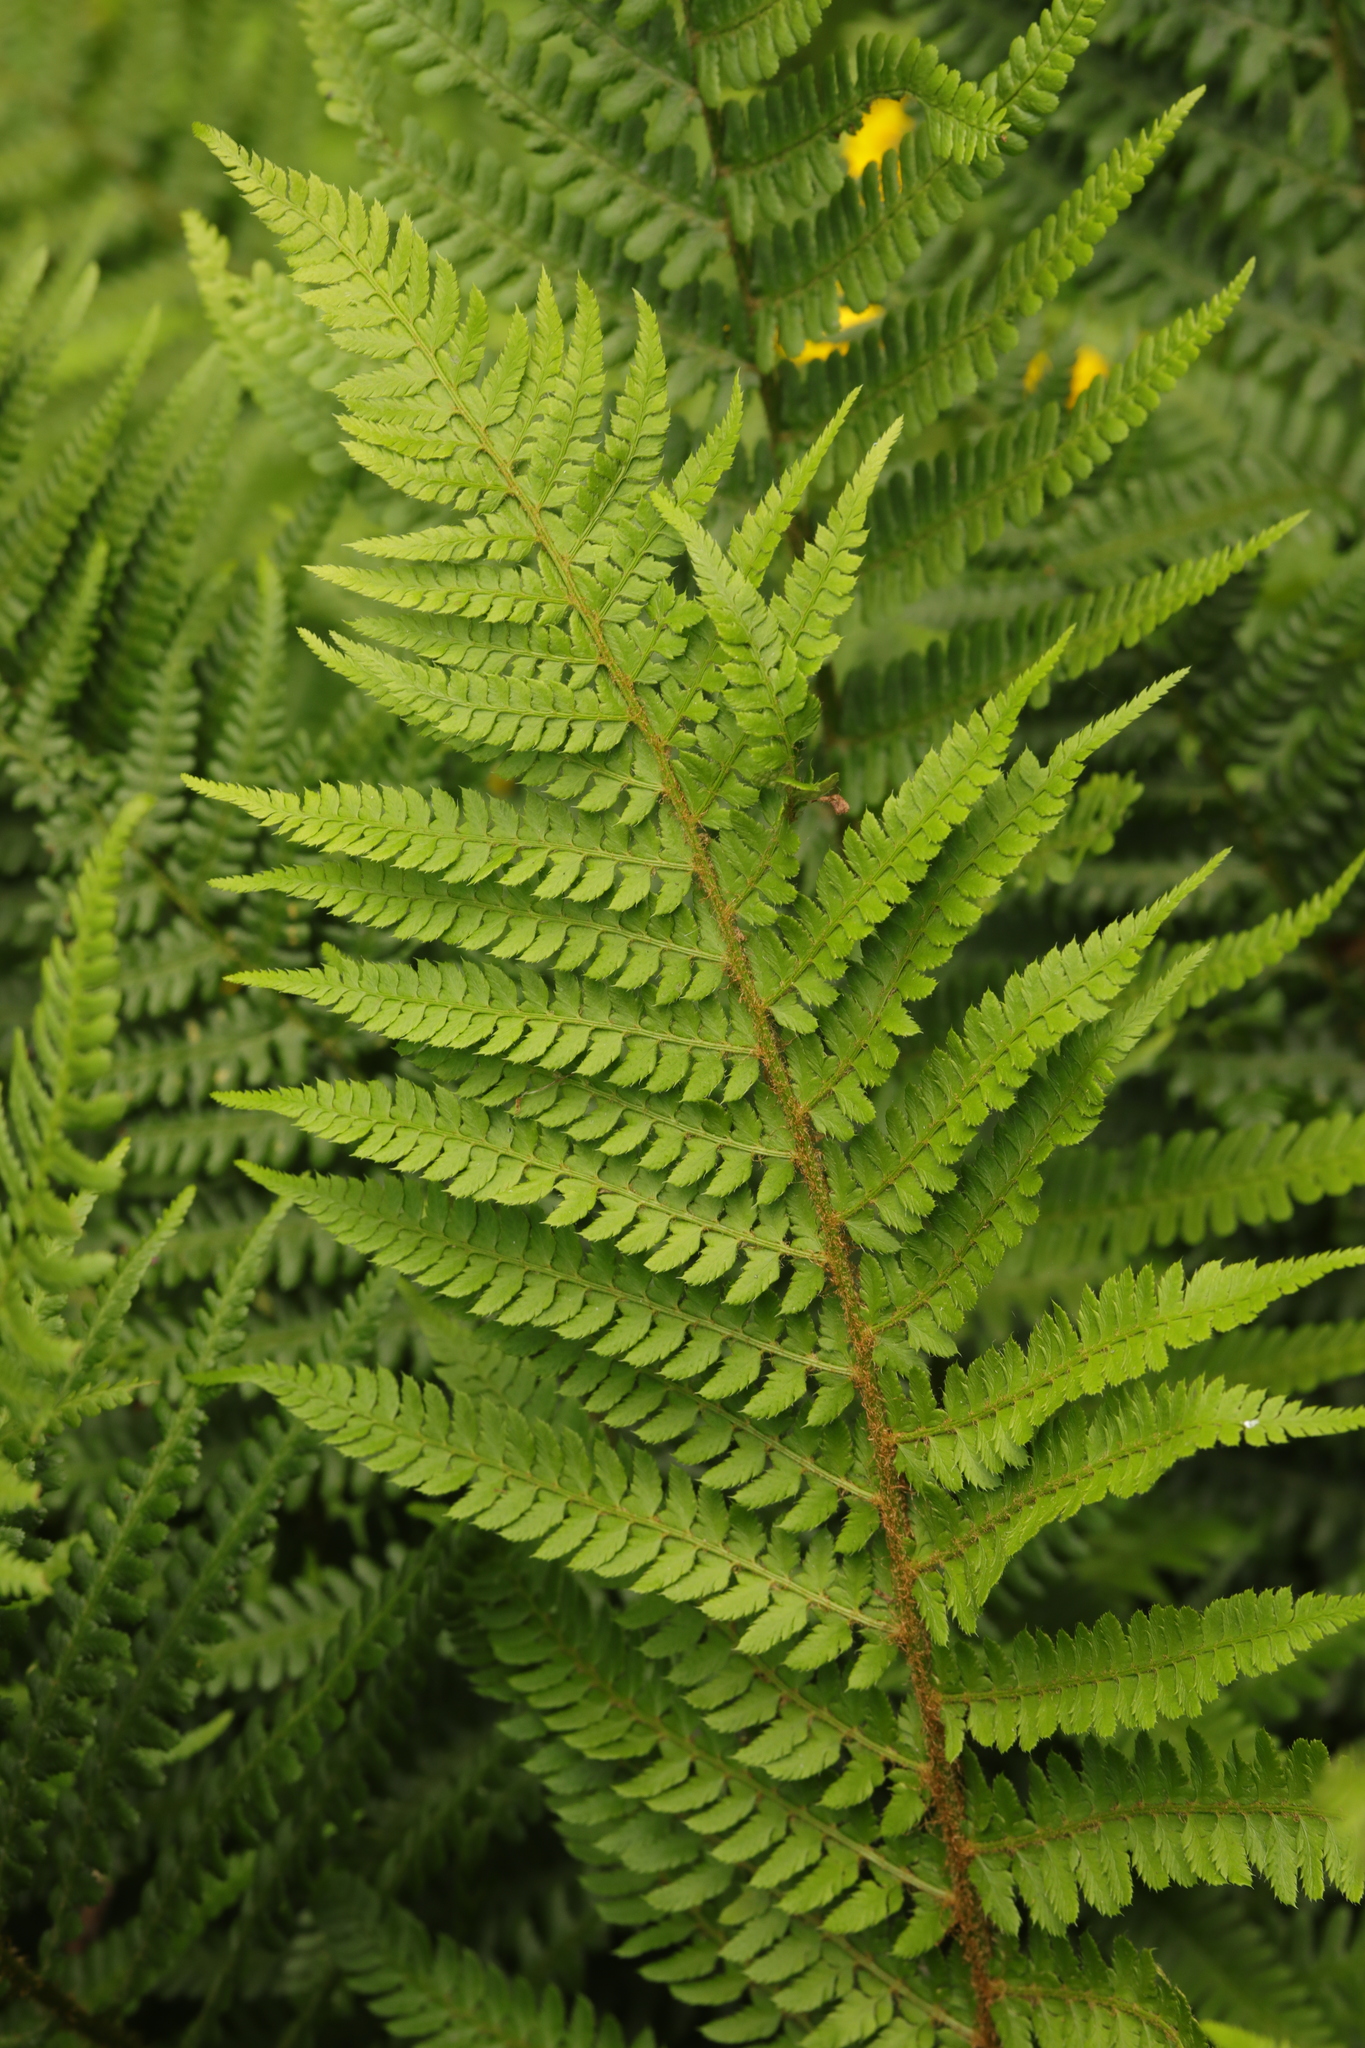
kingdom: Plantae
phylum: Tracheophyta
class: Polypodiopsida
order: Polypodiales
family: Dryopteridaceae
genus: Polystichum
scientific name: Polystichum setiferum
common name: Soft shield-fern
